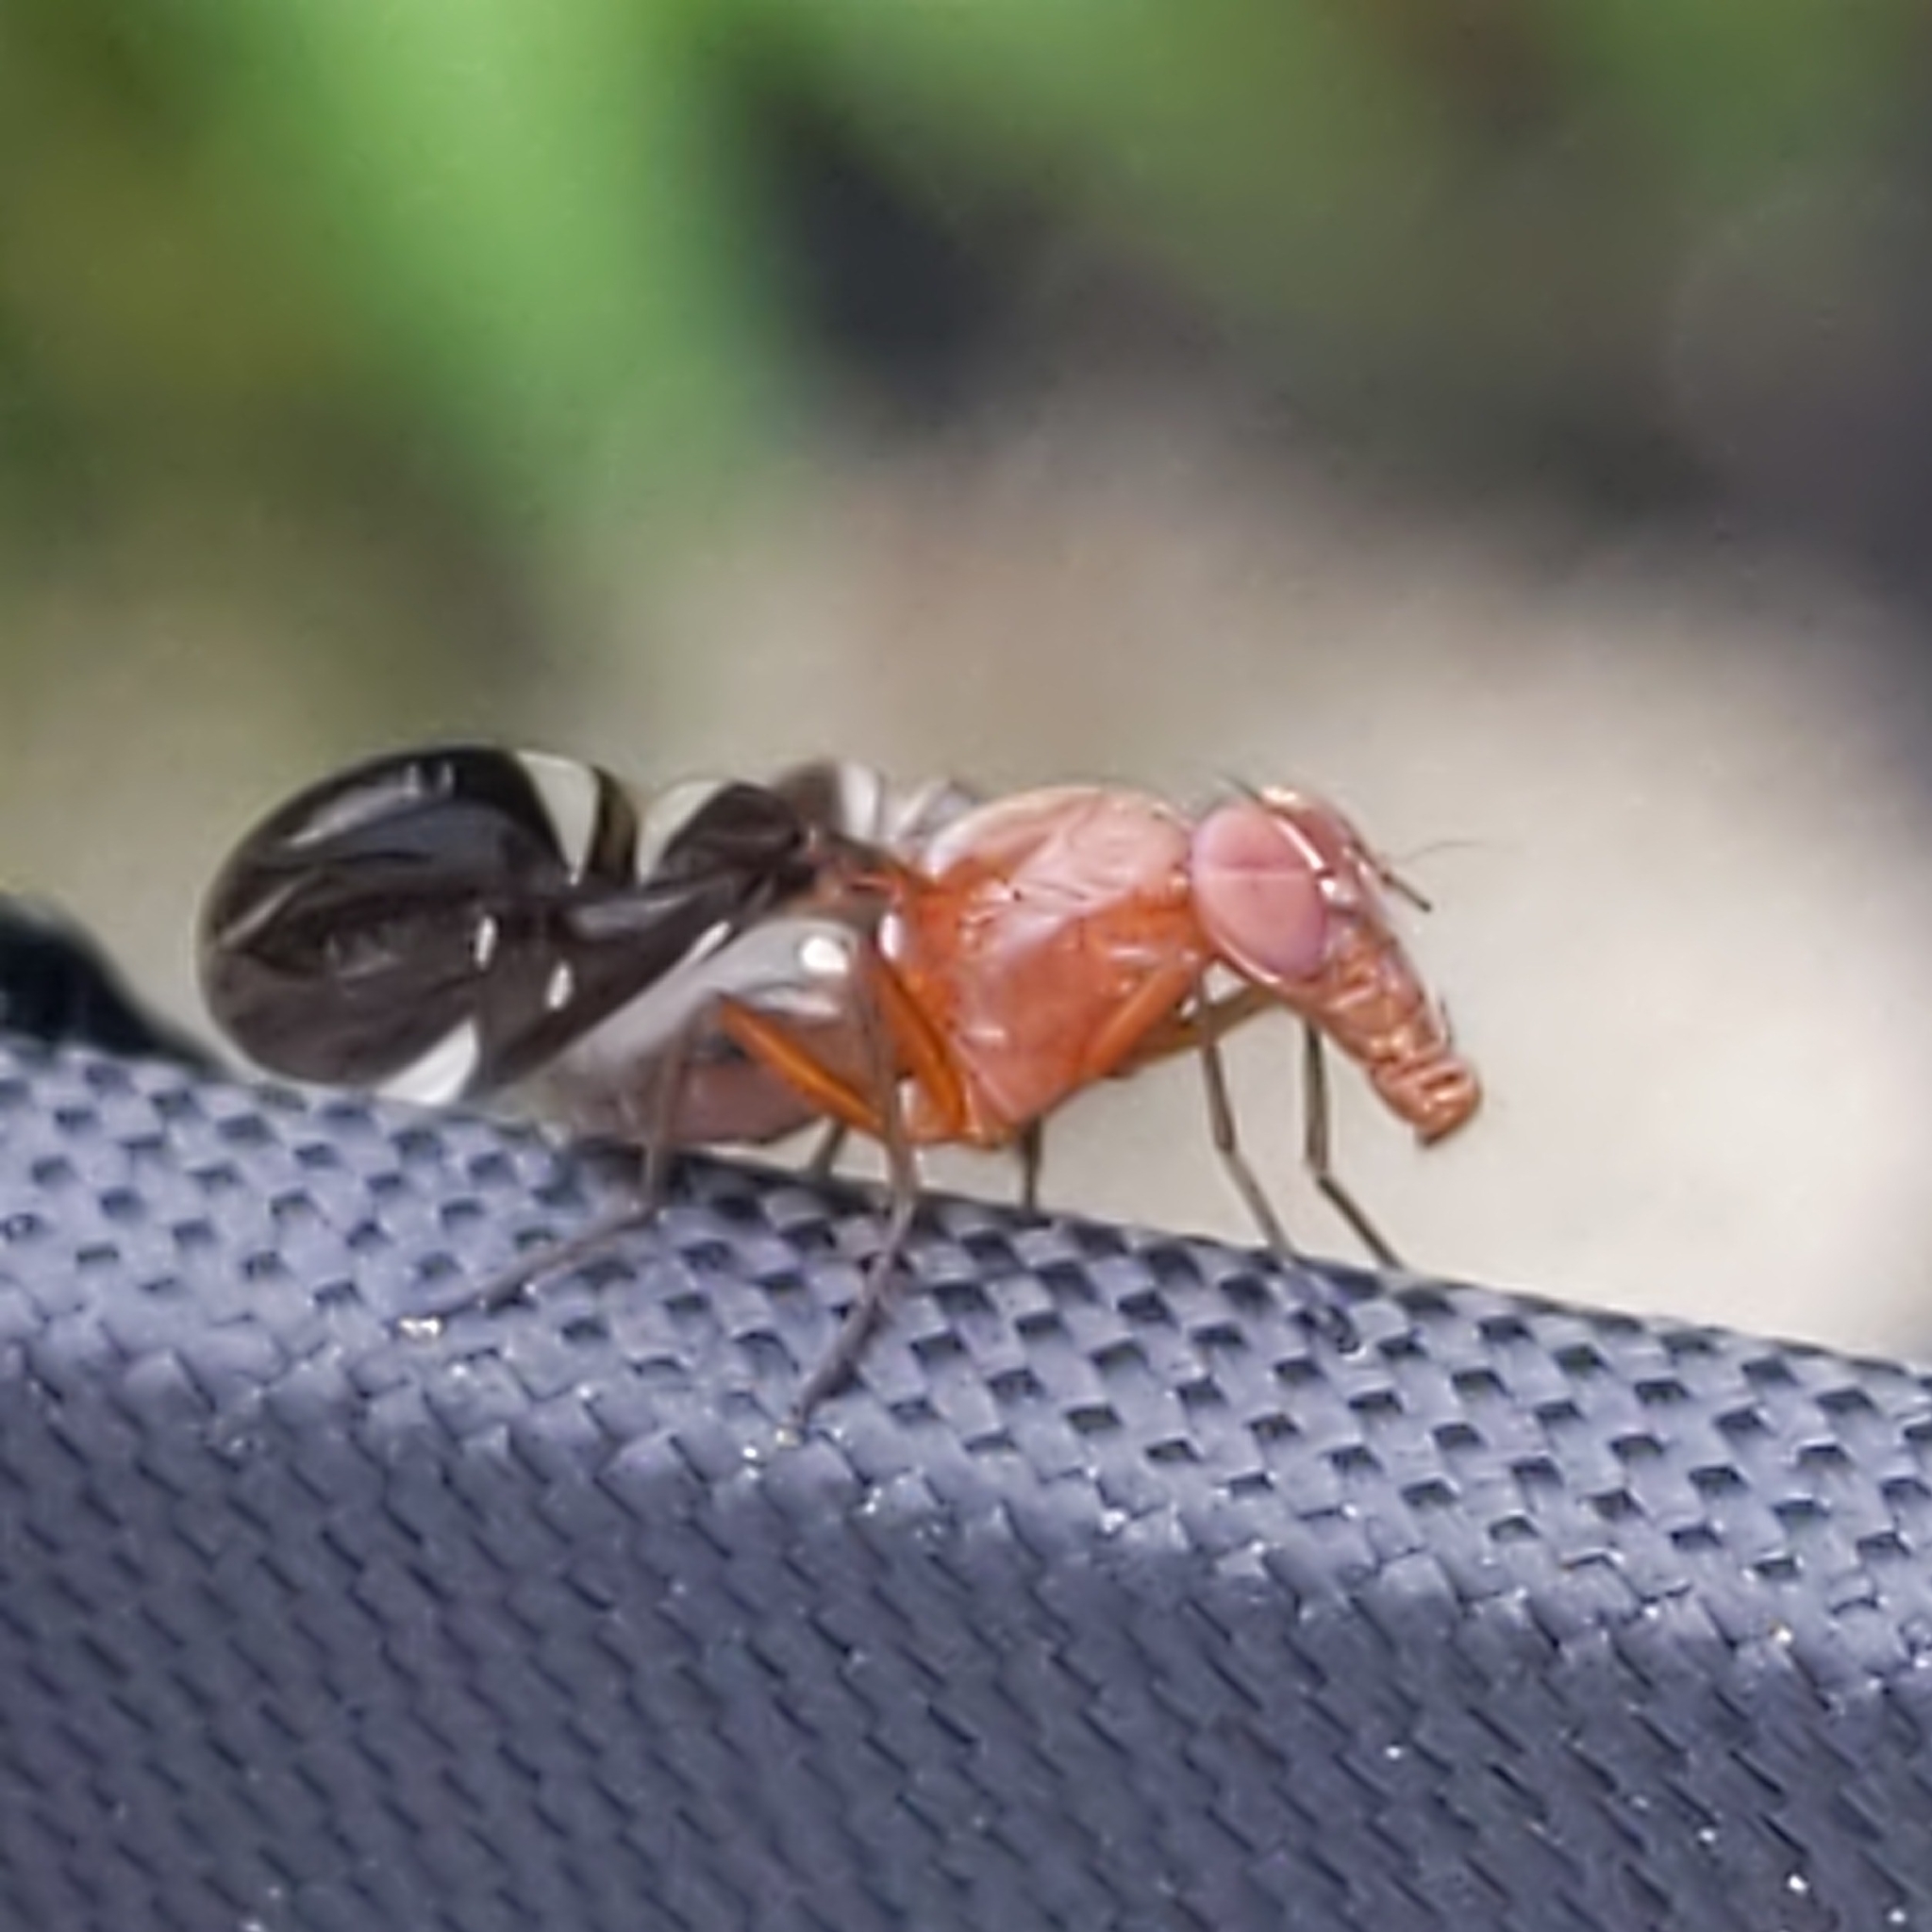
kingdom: Animalia
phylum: Arthropoda
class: Insecta
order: Diptera
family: Ulidiidae
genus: Delphinia
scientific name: Delphinia picta
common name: Common picture-winged fly
